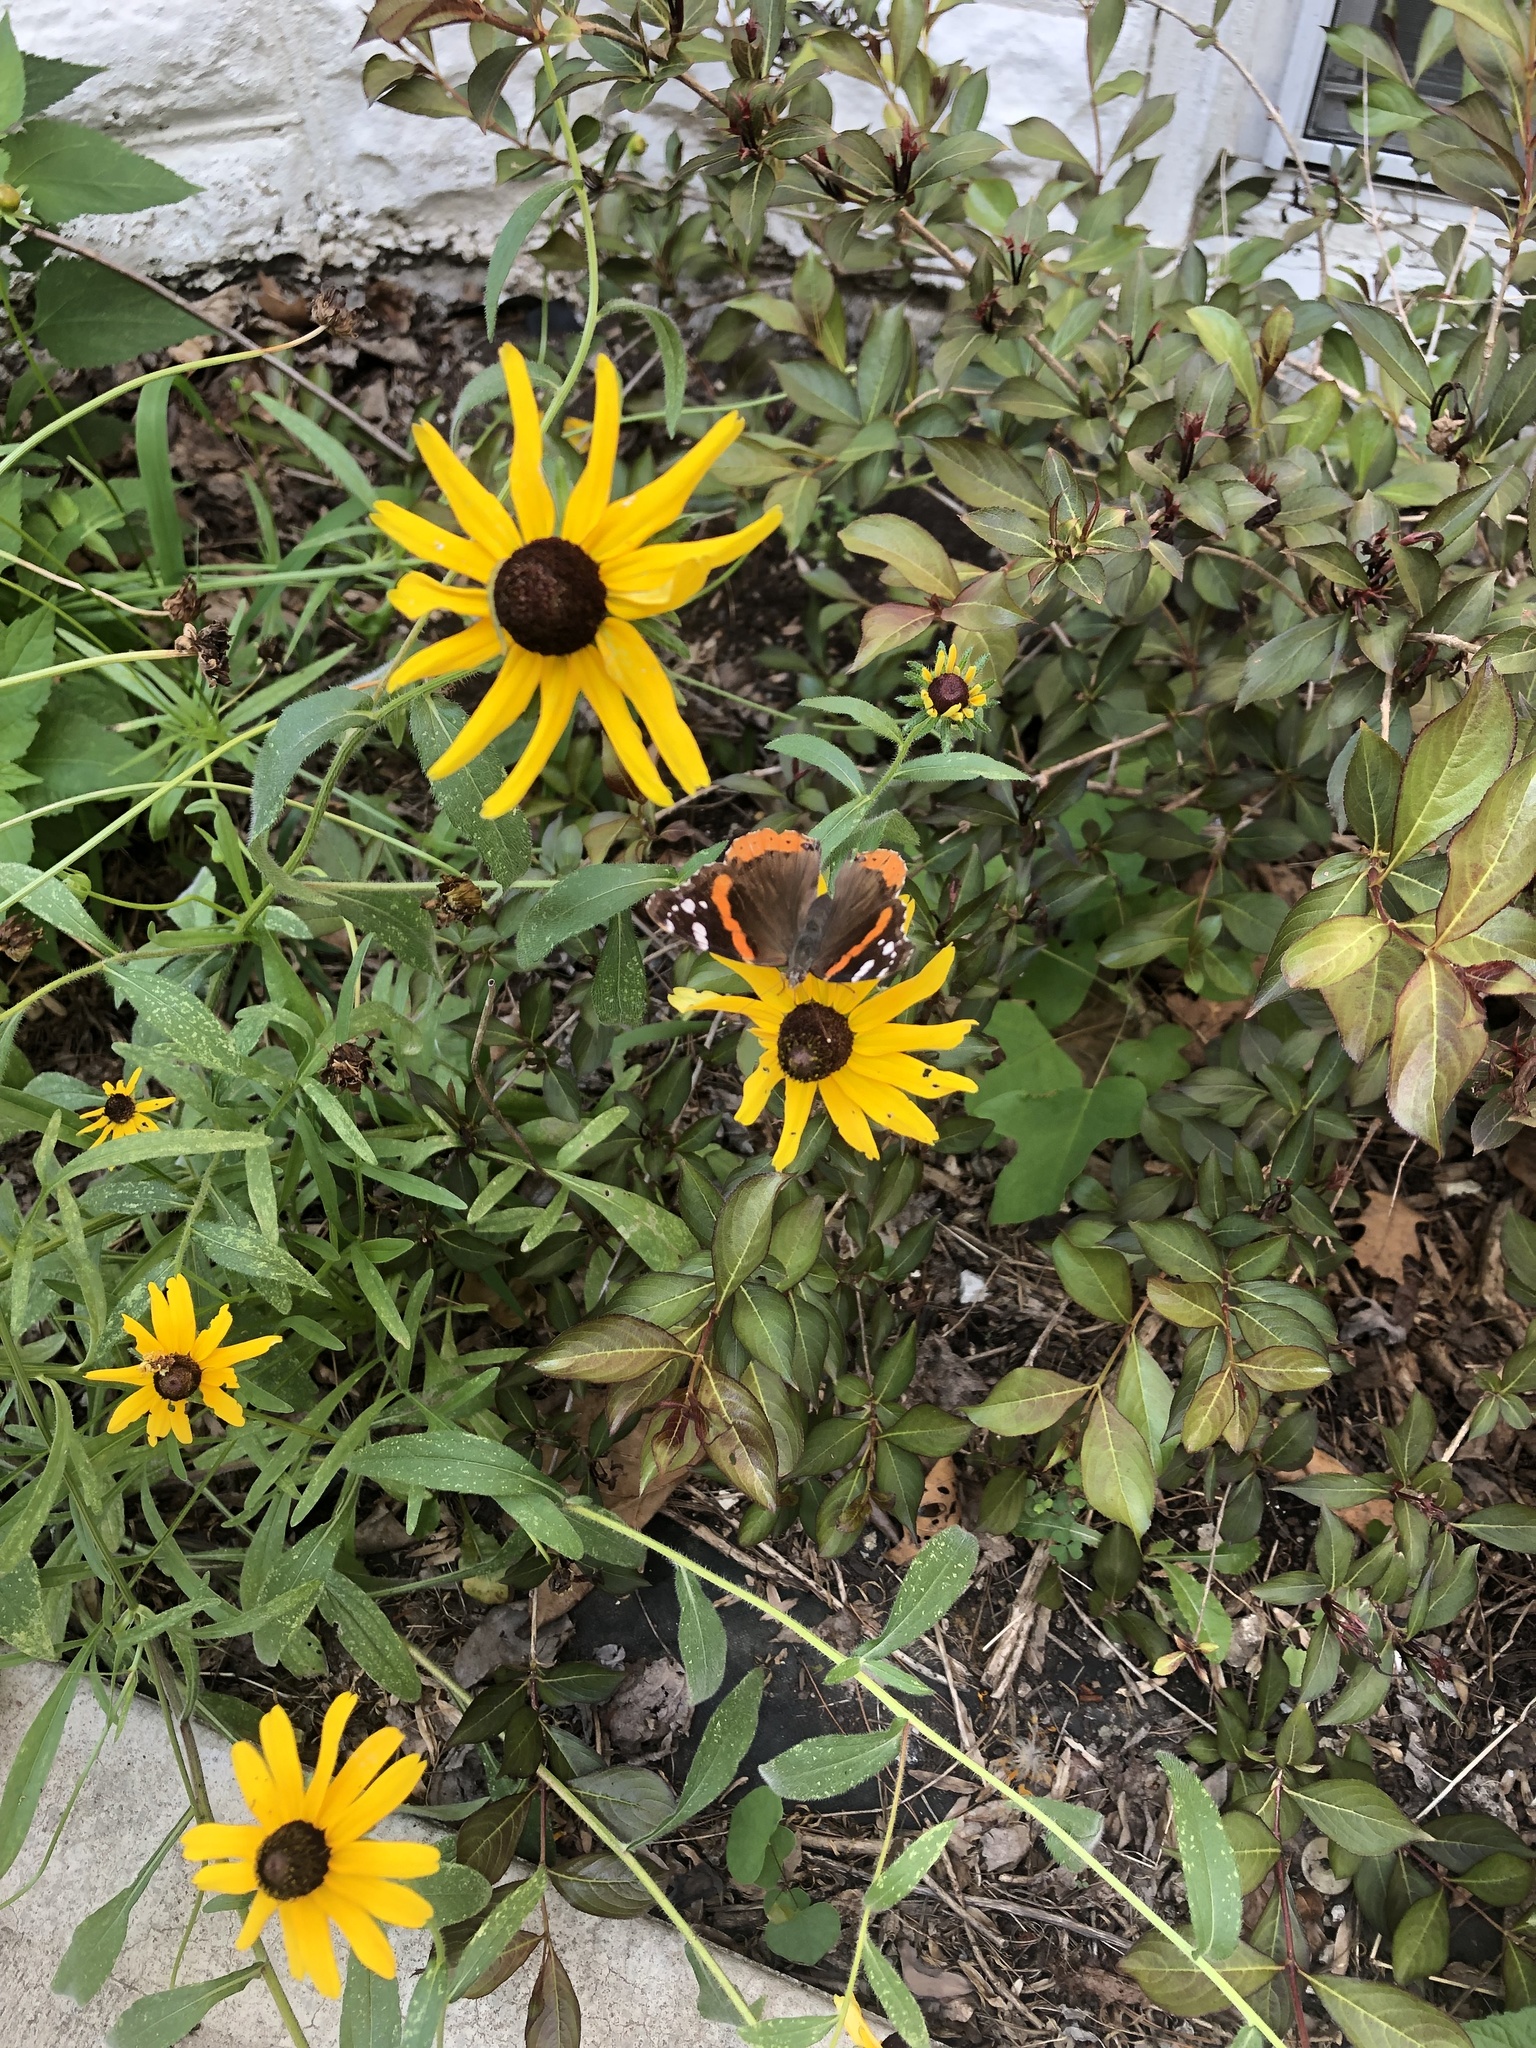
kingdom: Animalia
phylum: Arthropoda
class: Insecta
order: Lepidoptera
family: Nymphalidae
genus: Vanessa
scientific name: Vanessa atalanta
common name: Red admiral
